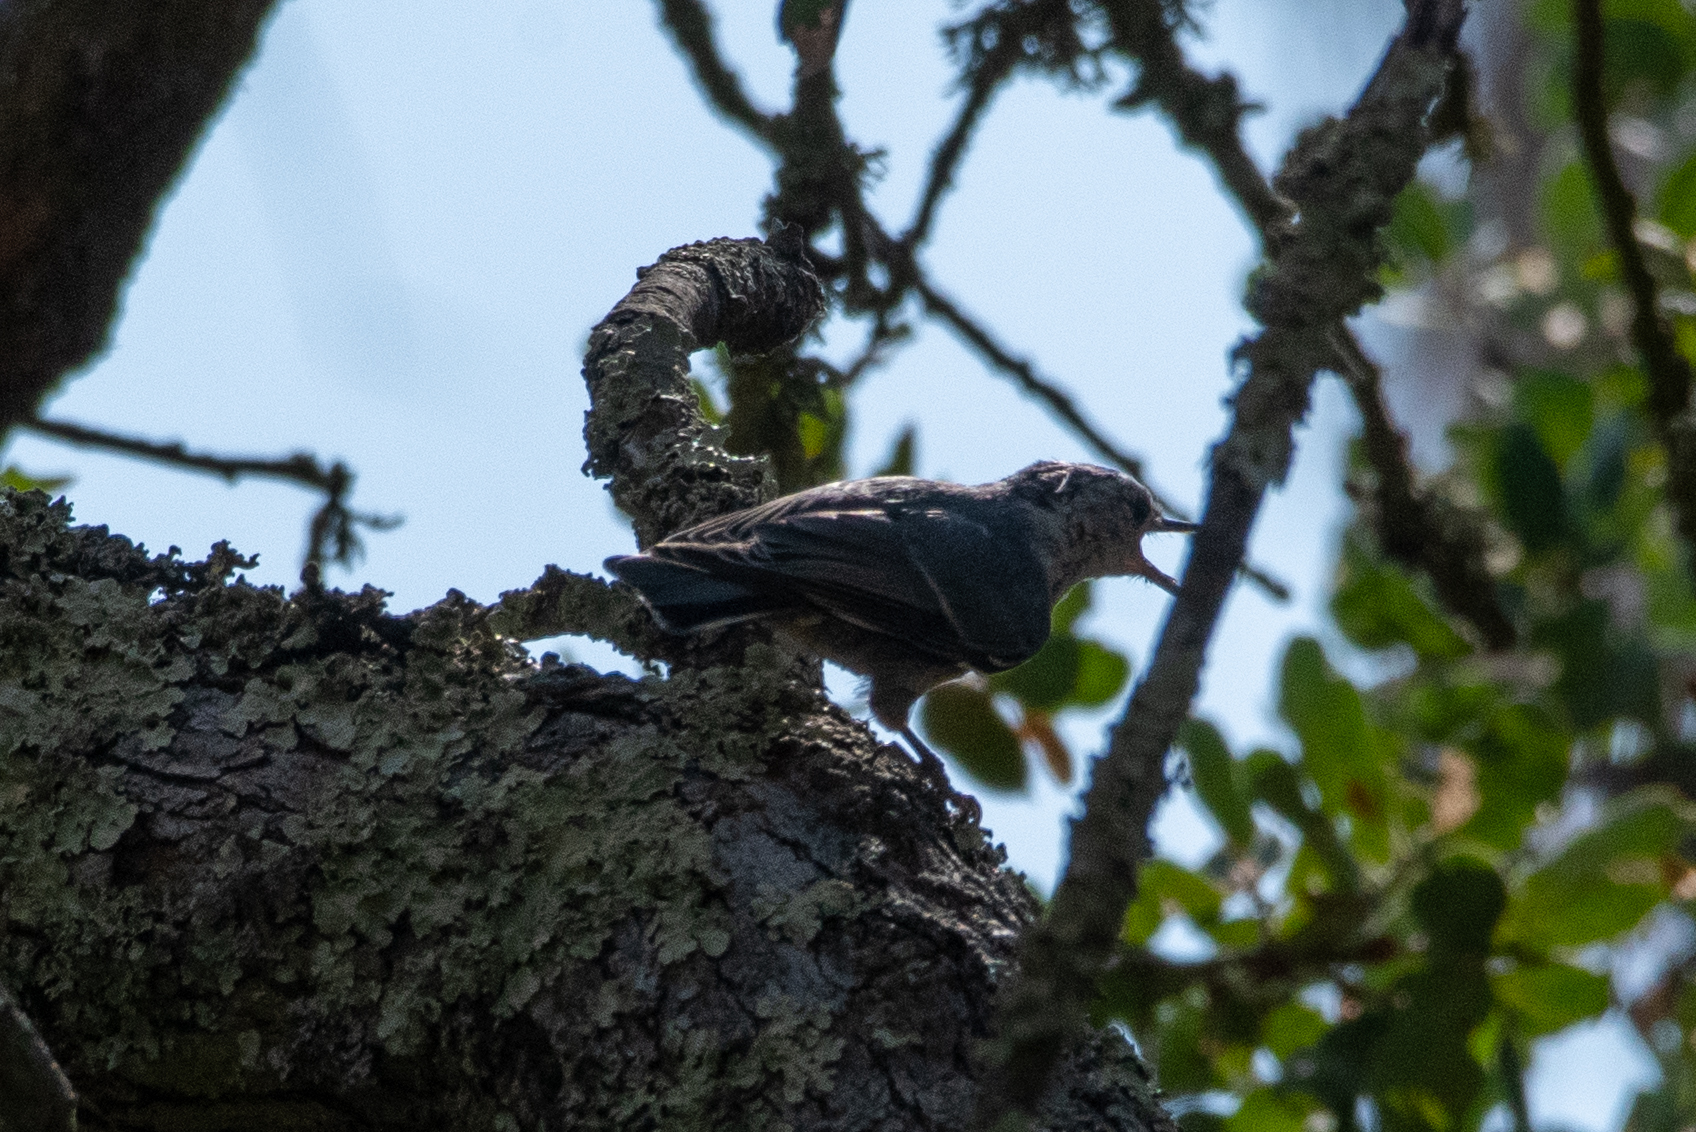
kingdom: Animalia
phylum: Chordata
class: Aves
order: Passeriformes
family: Sittidae
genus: Sitta
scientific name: Sitta carolinensis
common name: White-breasted nuthatch
